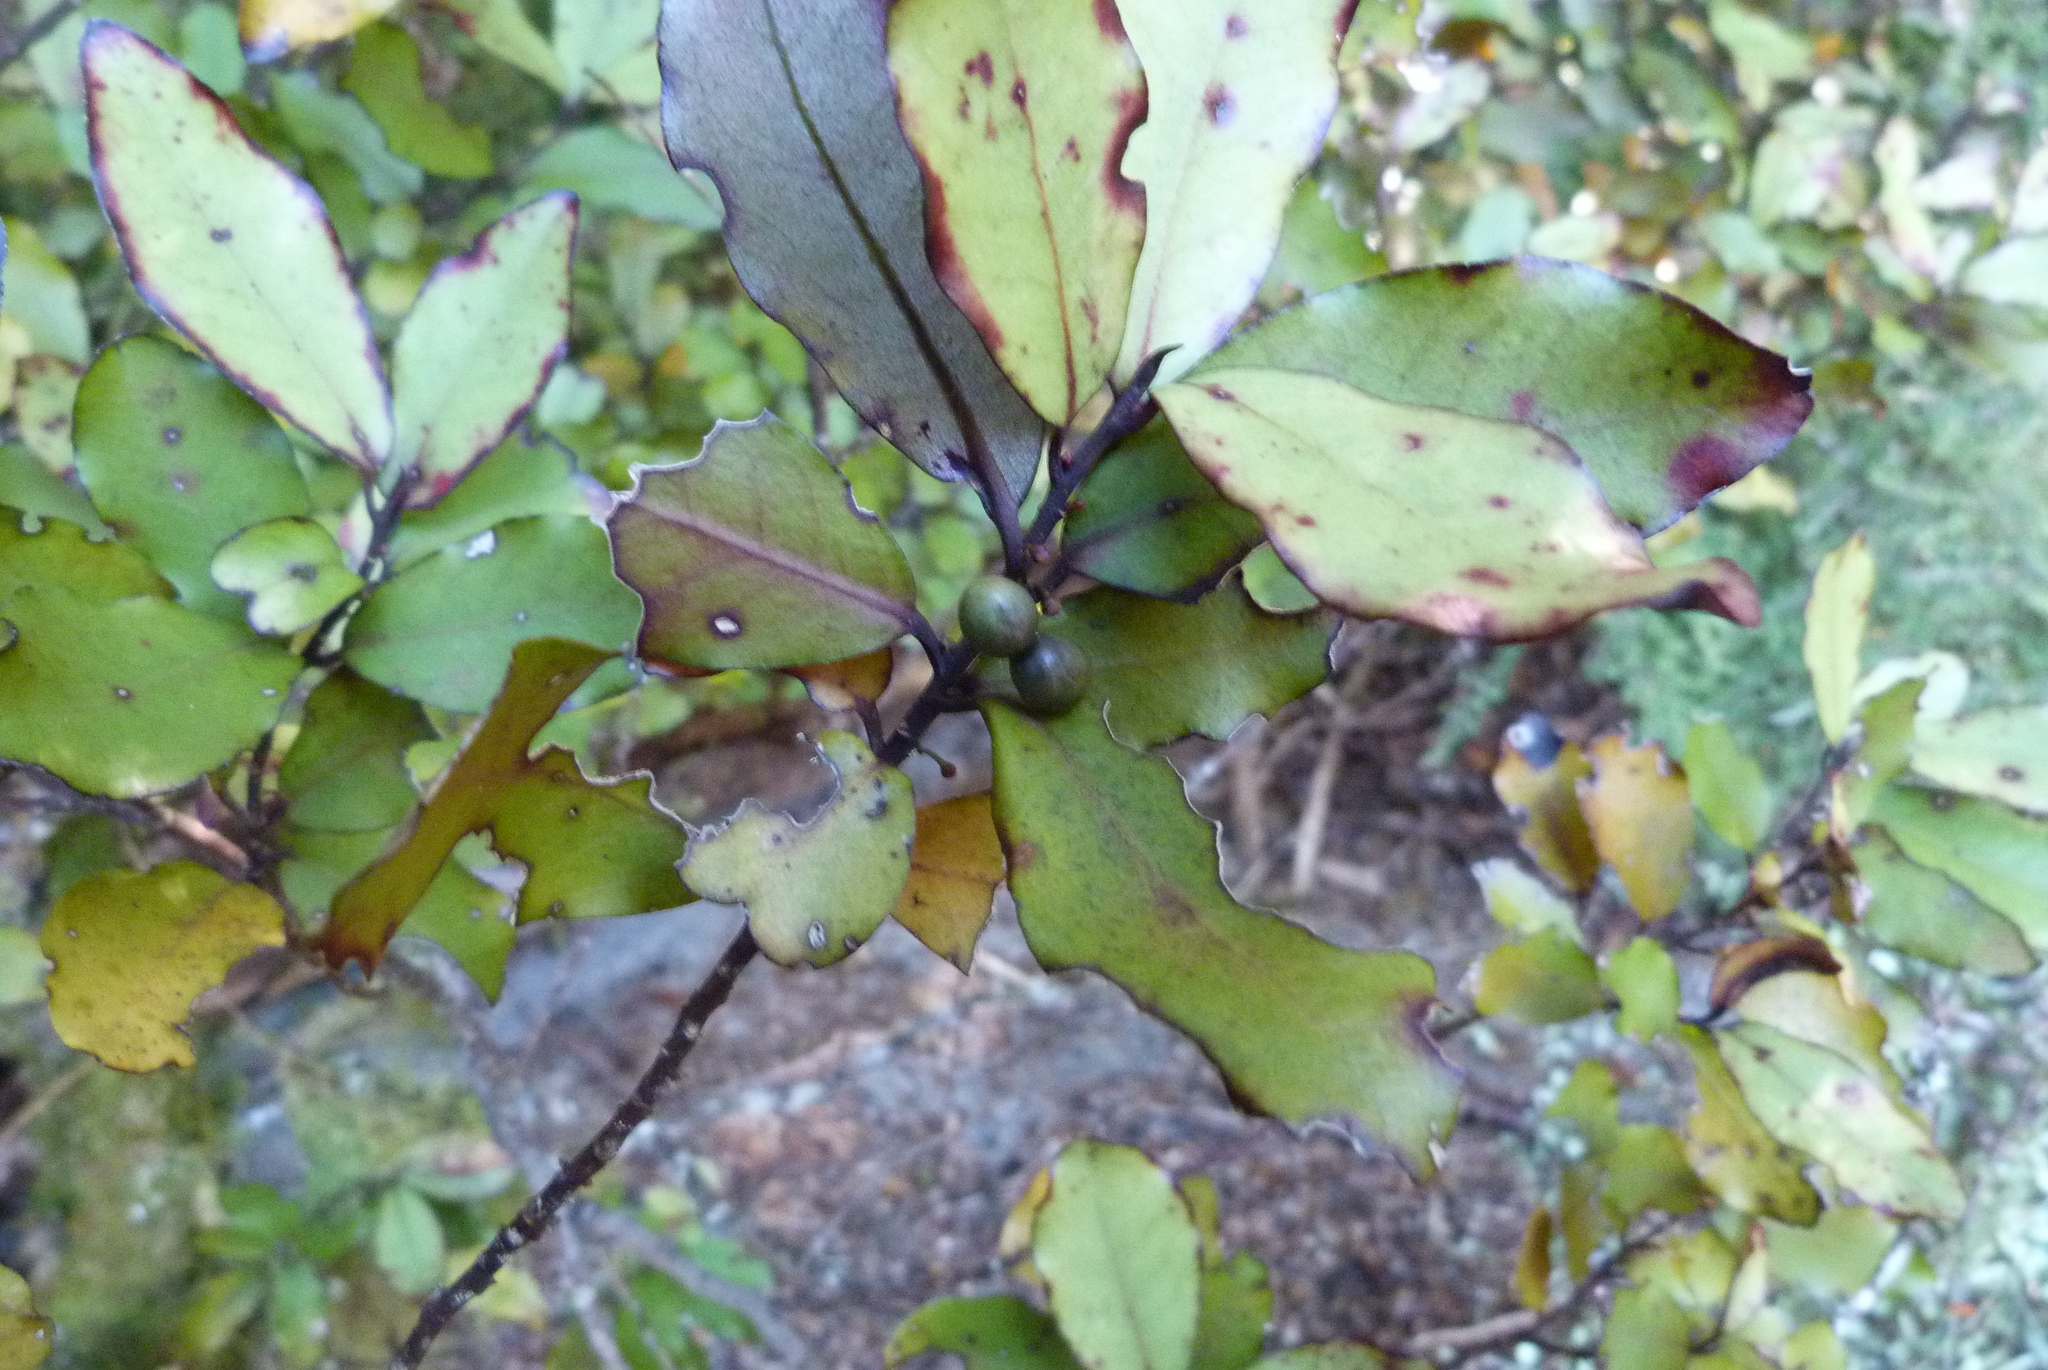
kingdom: Plantae
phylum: Tracheophyta
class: Magnoliopsida
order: Canellales
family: Winteraceae
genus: Pseudowintera
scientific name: Pseudowintera colorata
